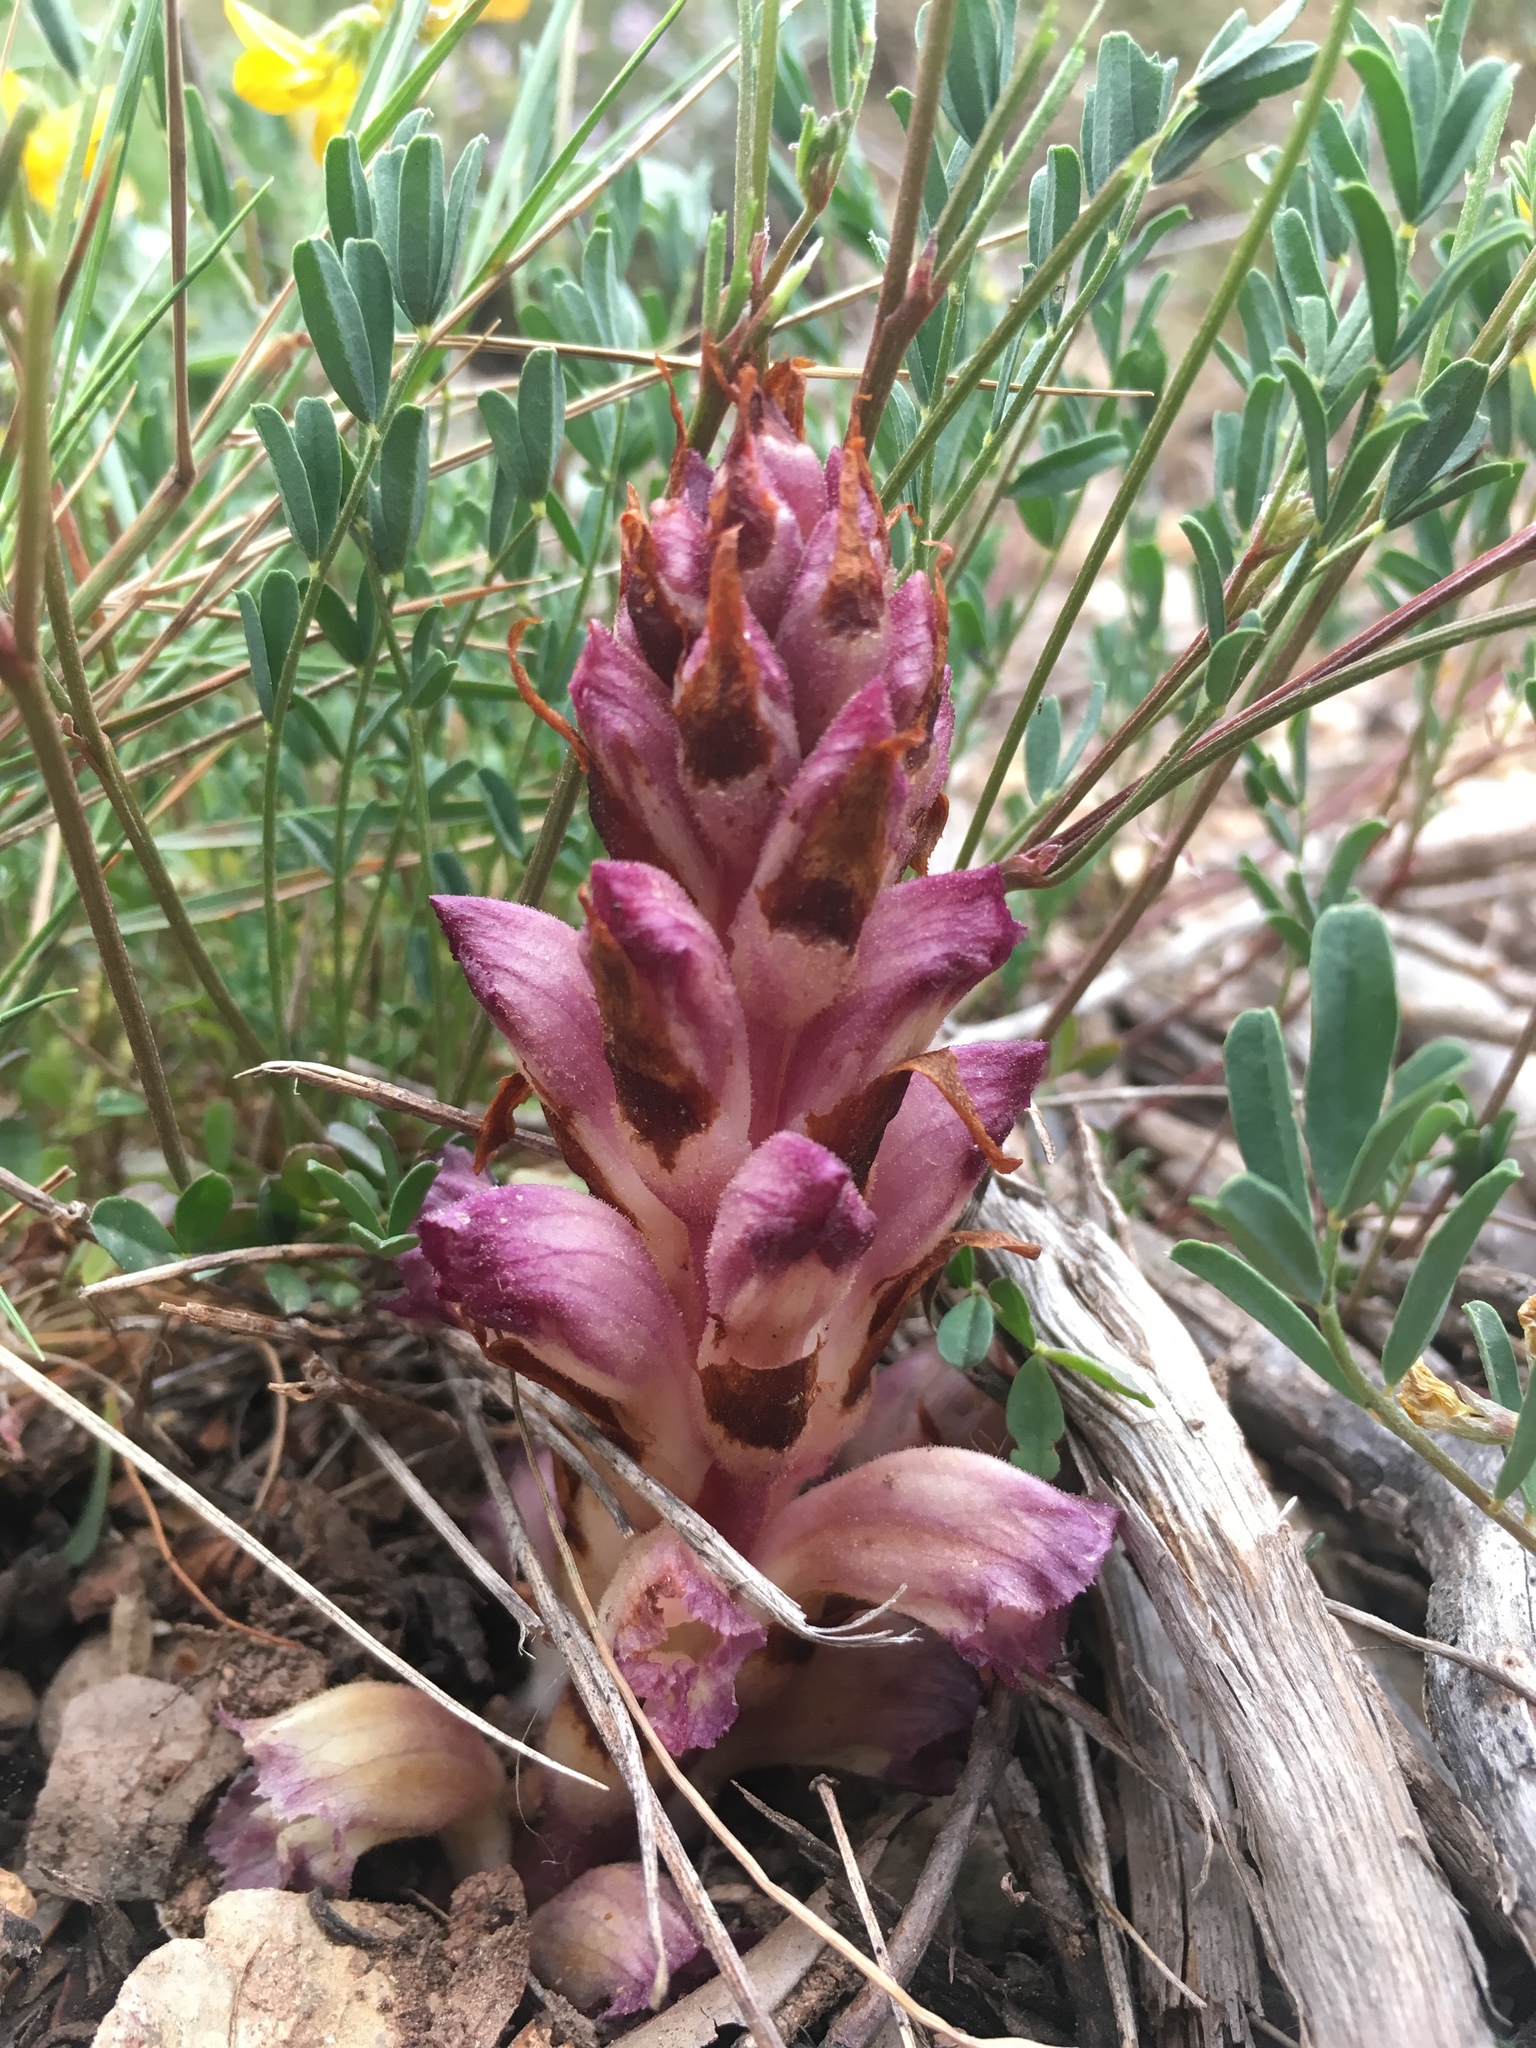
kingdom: Plantae
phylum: Tracheophyta
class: Magnoliopsida
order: Lamiales
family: Orobanchaceae
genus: Boulardia
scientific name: Boulardia latisquama
